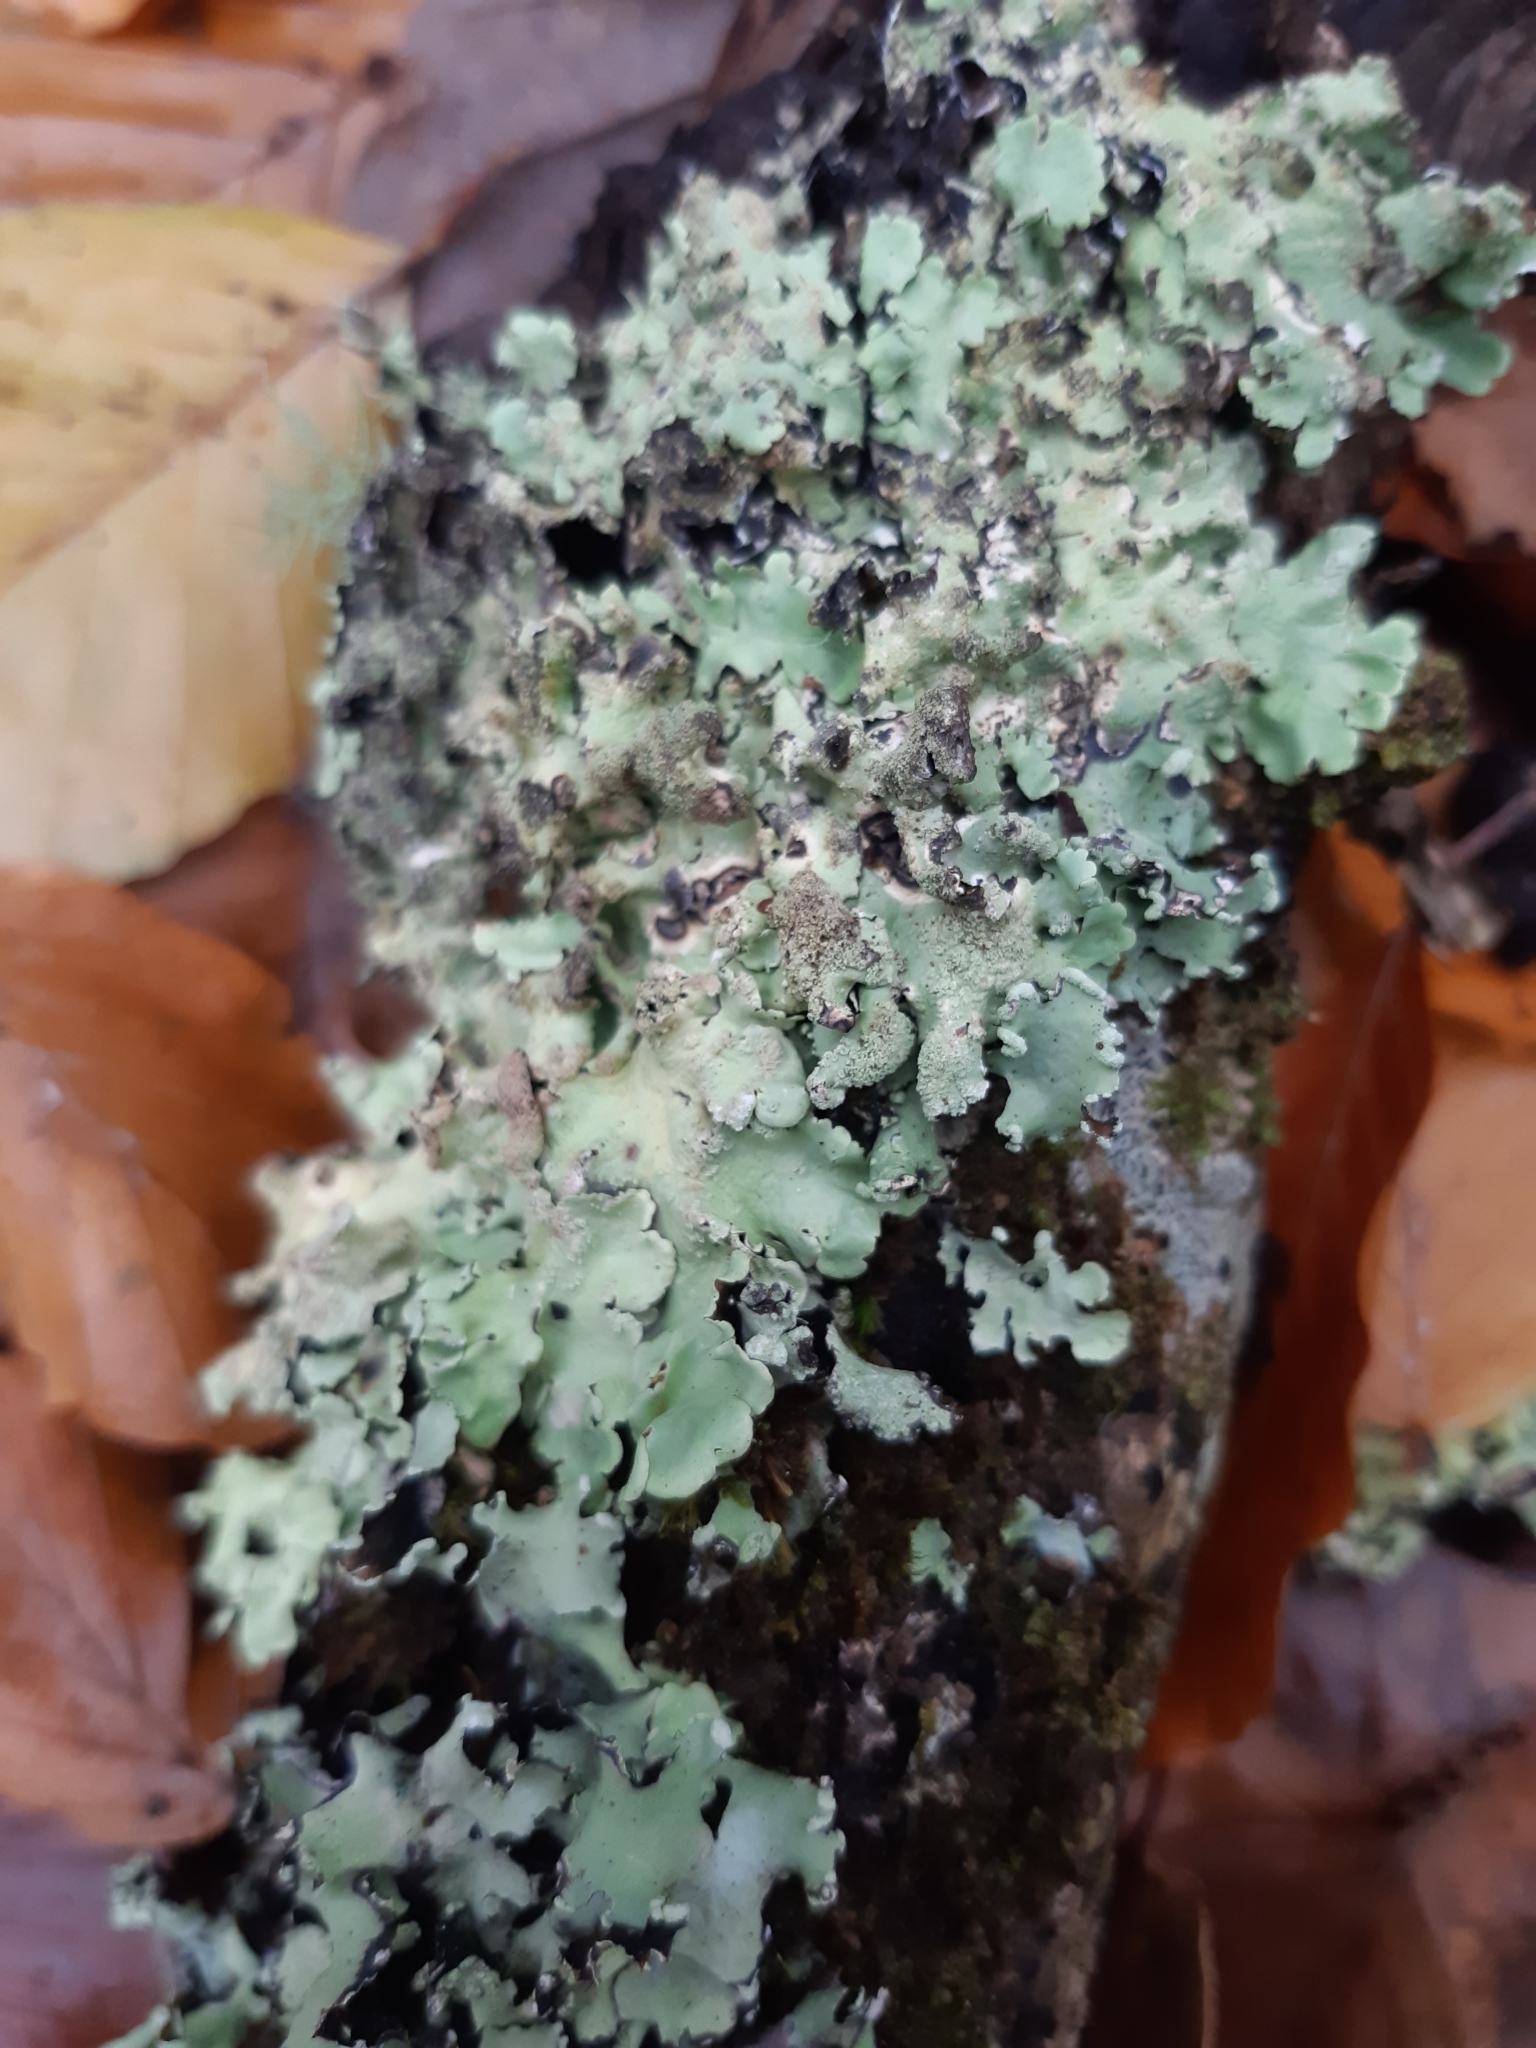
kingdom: Fungi
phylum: Ascomycota
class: Lecanoromycetes
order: Lecanorales
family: Parmeliaceae
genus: Flavoparmelia
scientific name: Flavoparmelia caperata
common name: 40-mile per hour lichen
